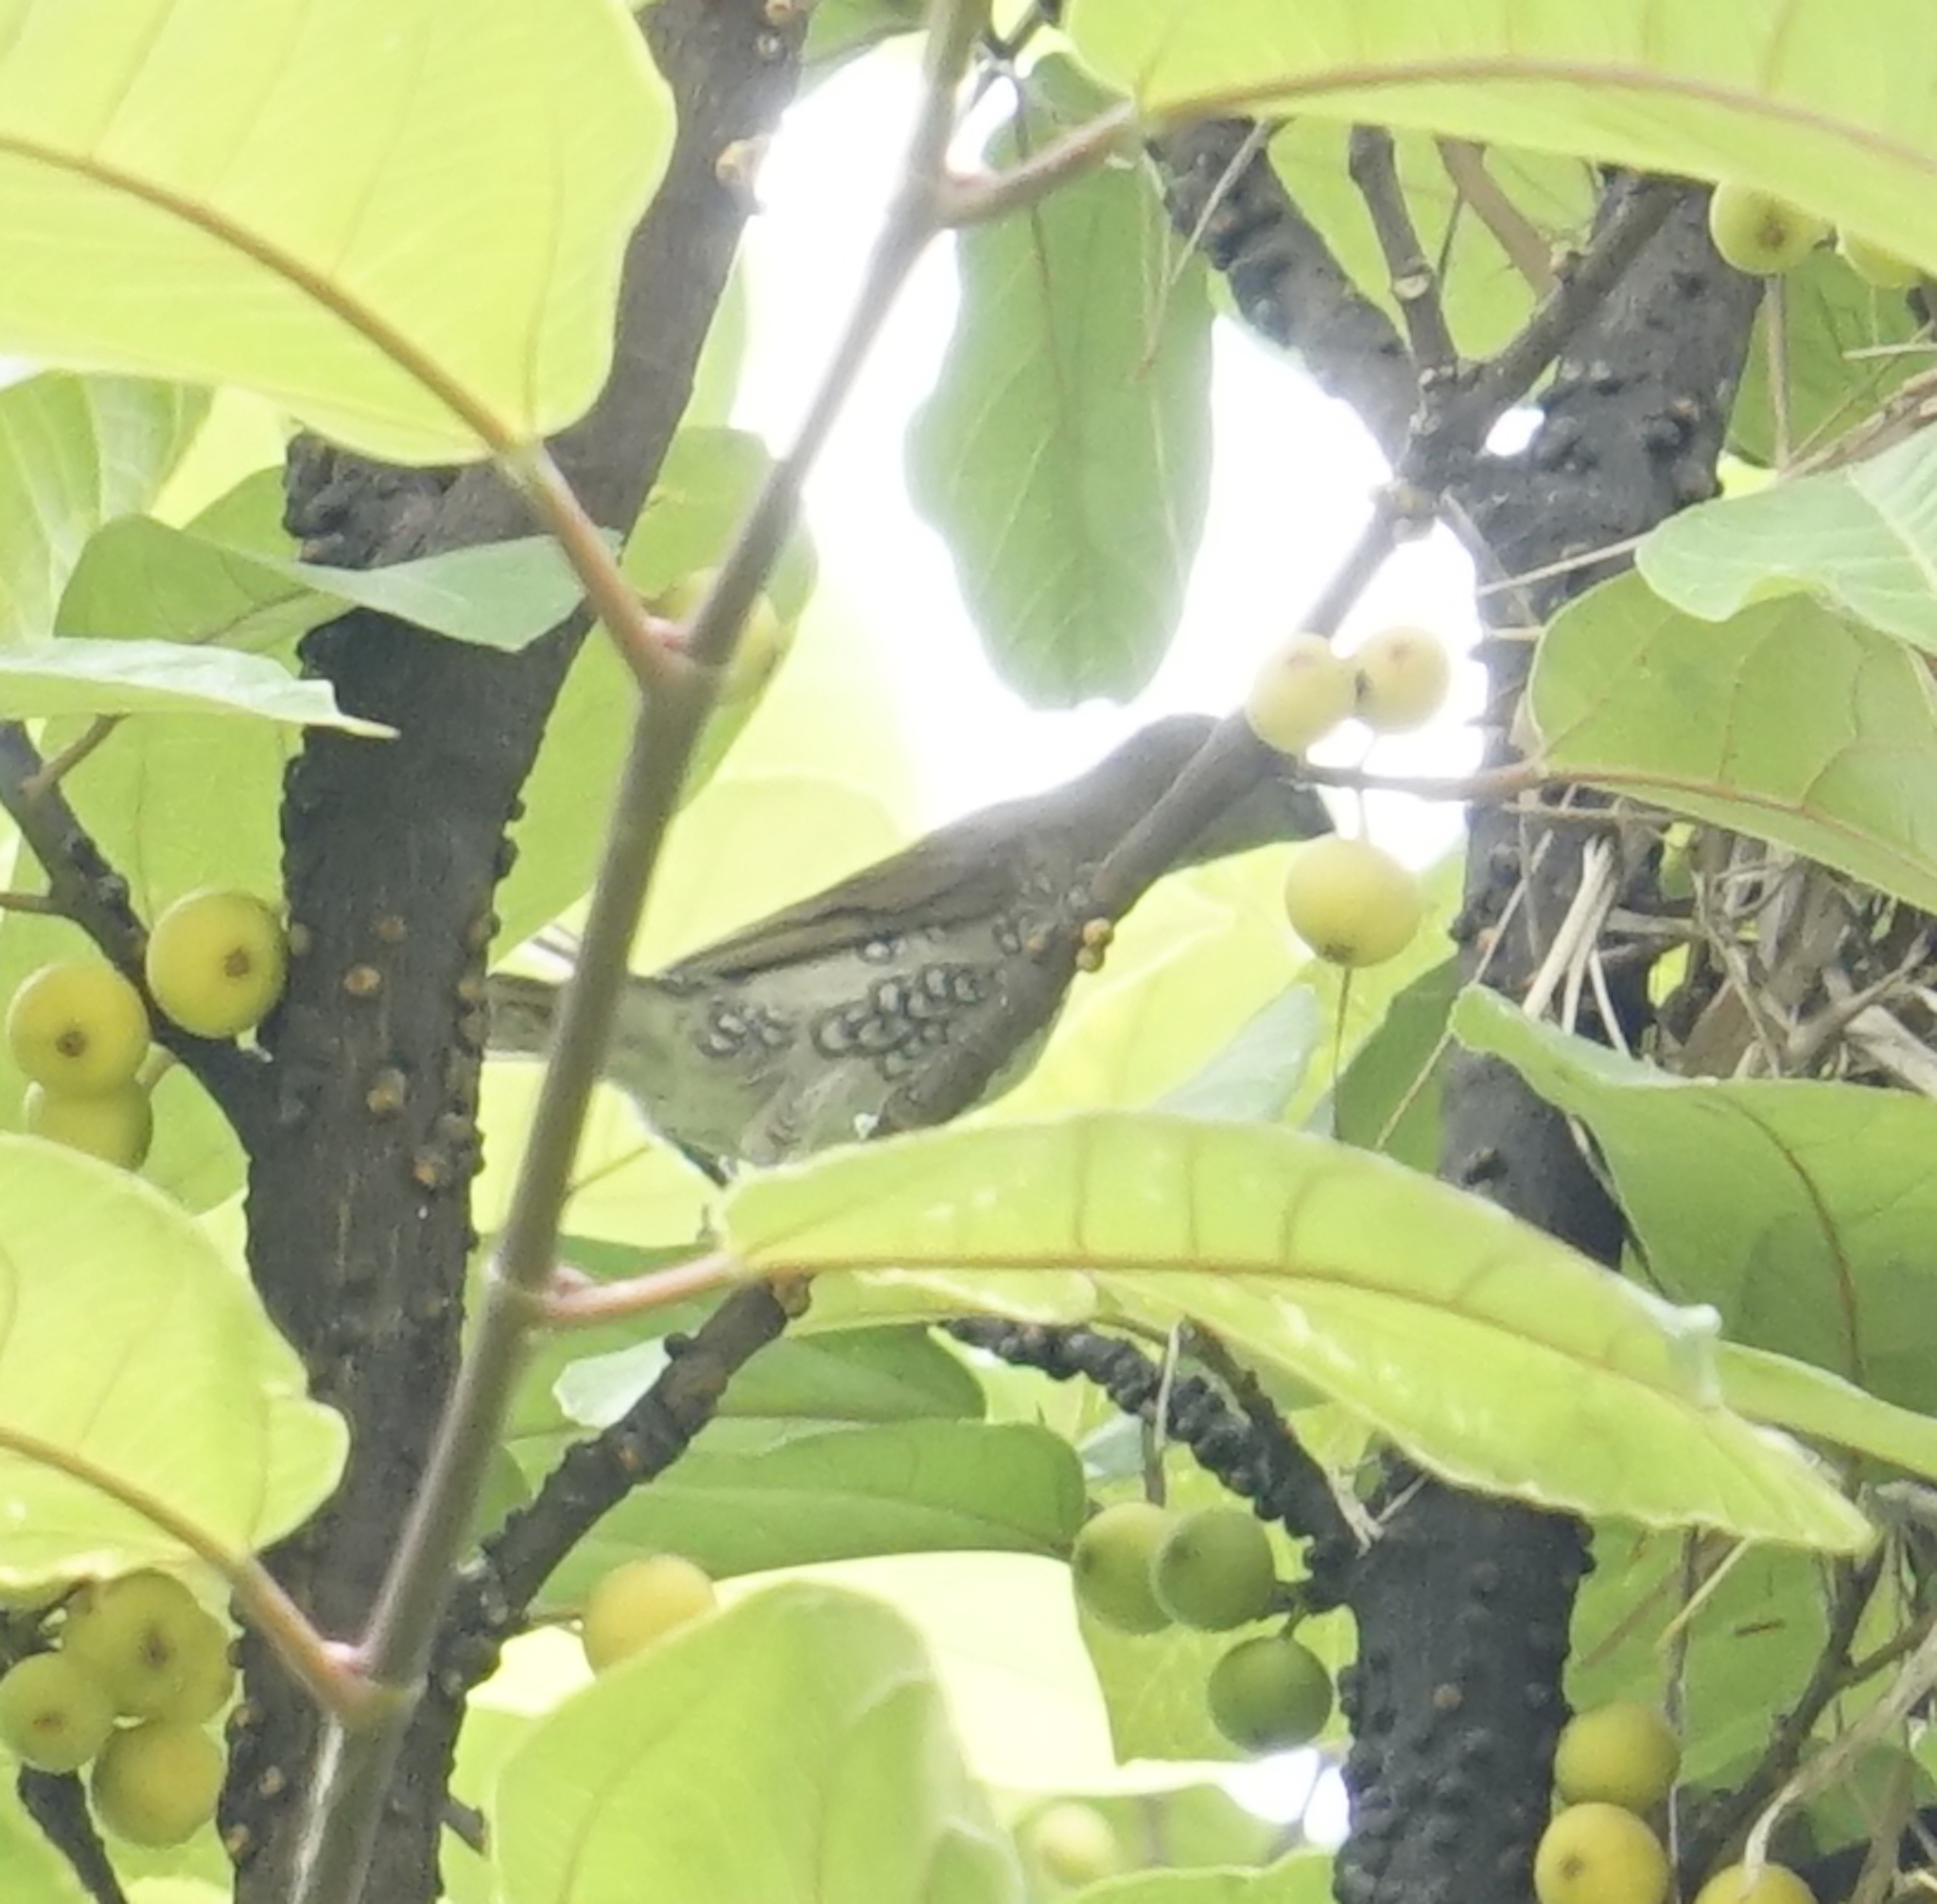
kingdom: Animalia
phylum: Chordata
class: Aves
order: Passeriformes
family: Estrildidae
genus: Lonchura
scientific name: Lonchura punctulata
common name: Scaly-breasted munia
